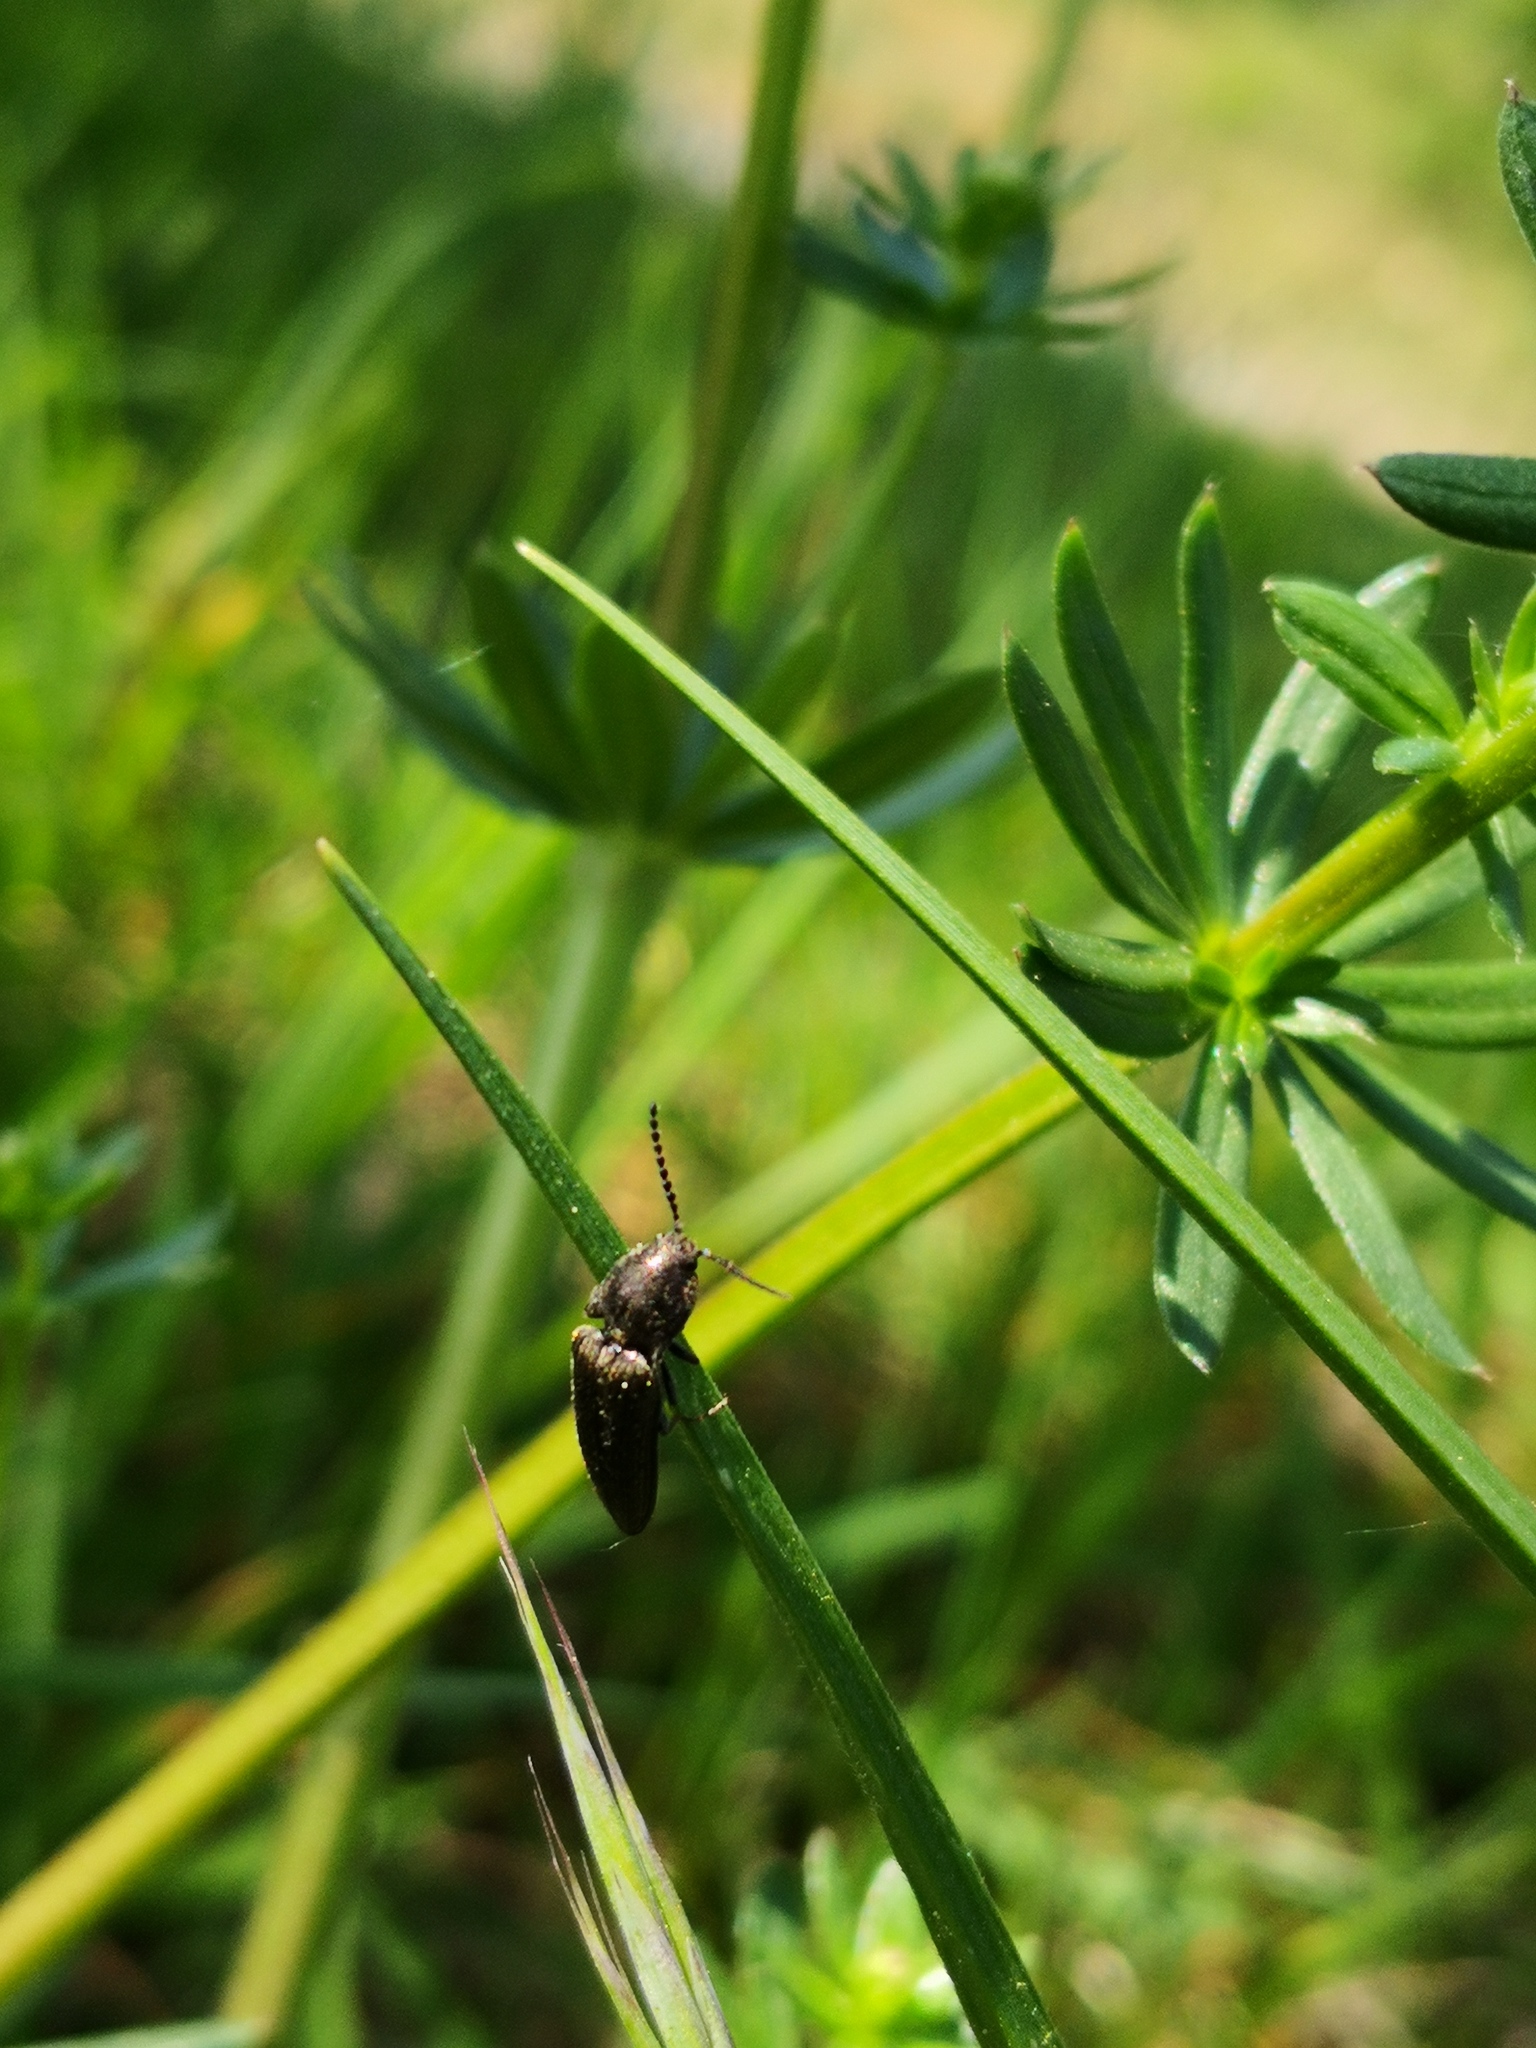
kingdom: Animalia
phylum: Arthropoda
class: Insecta
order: Coleoptera
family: Elateridae
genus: Cidnopus
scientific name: Cidnopus pilosus
